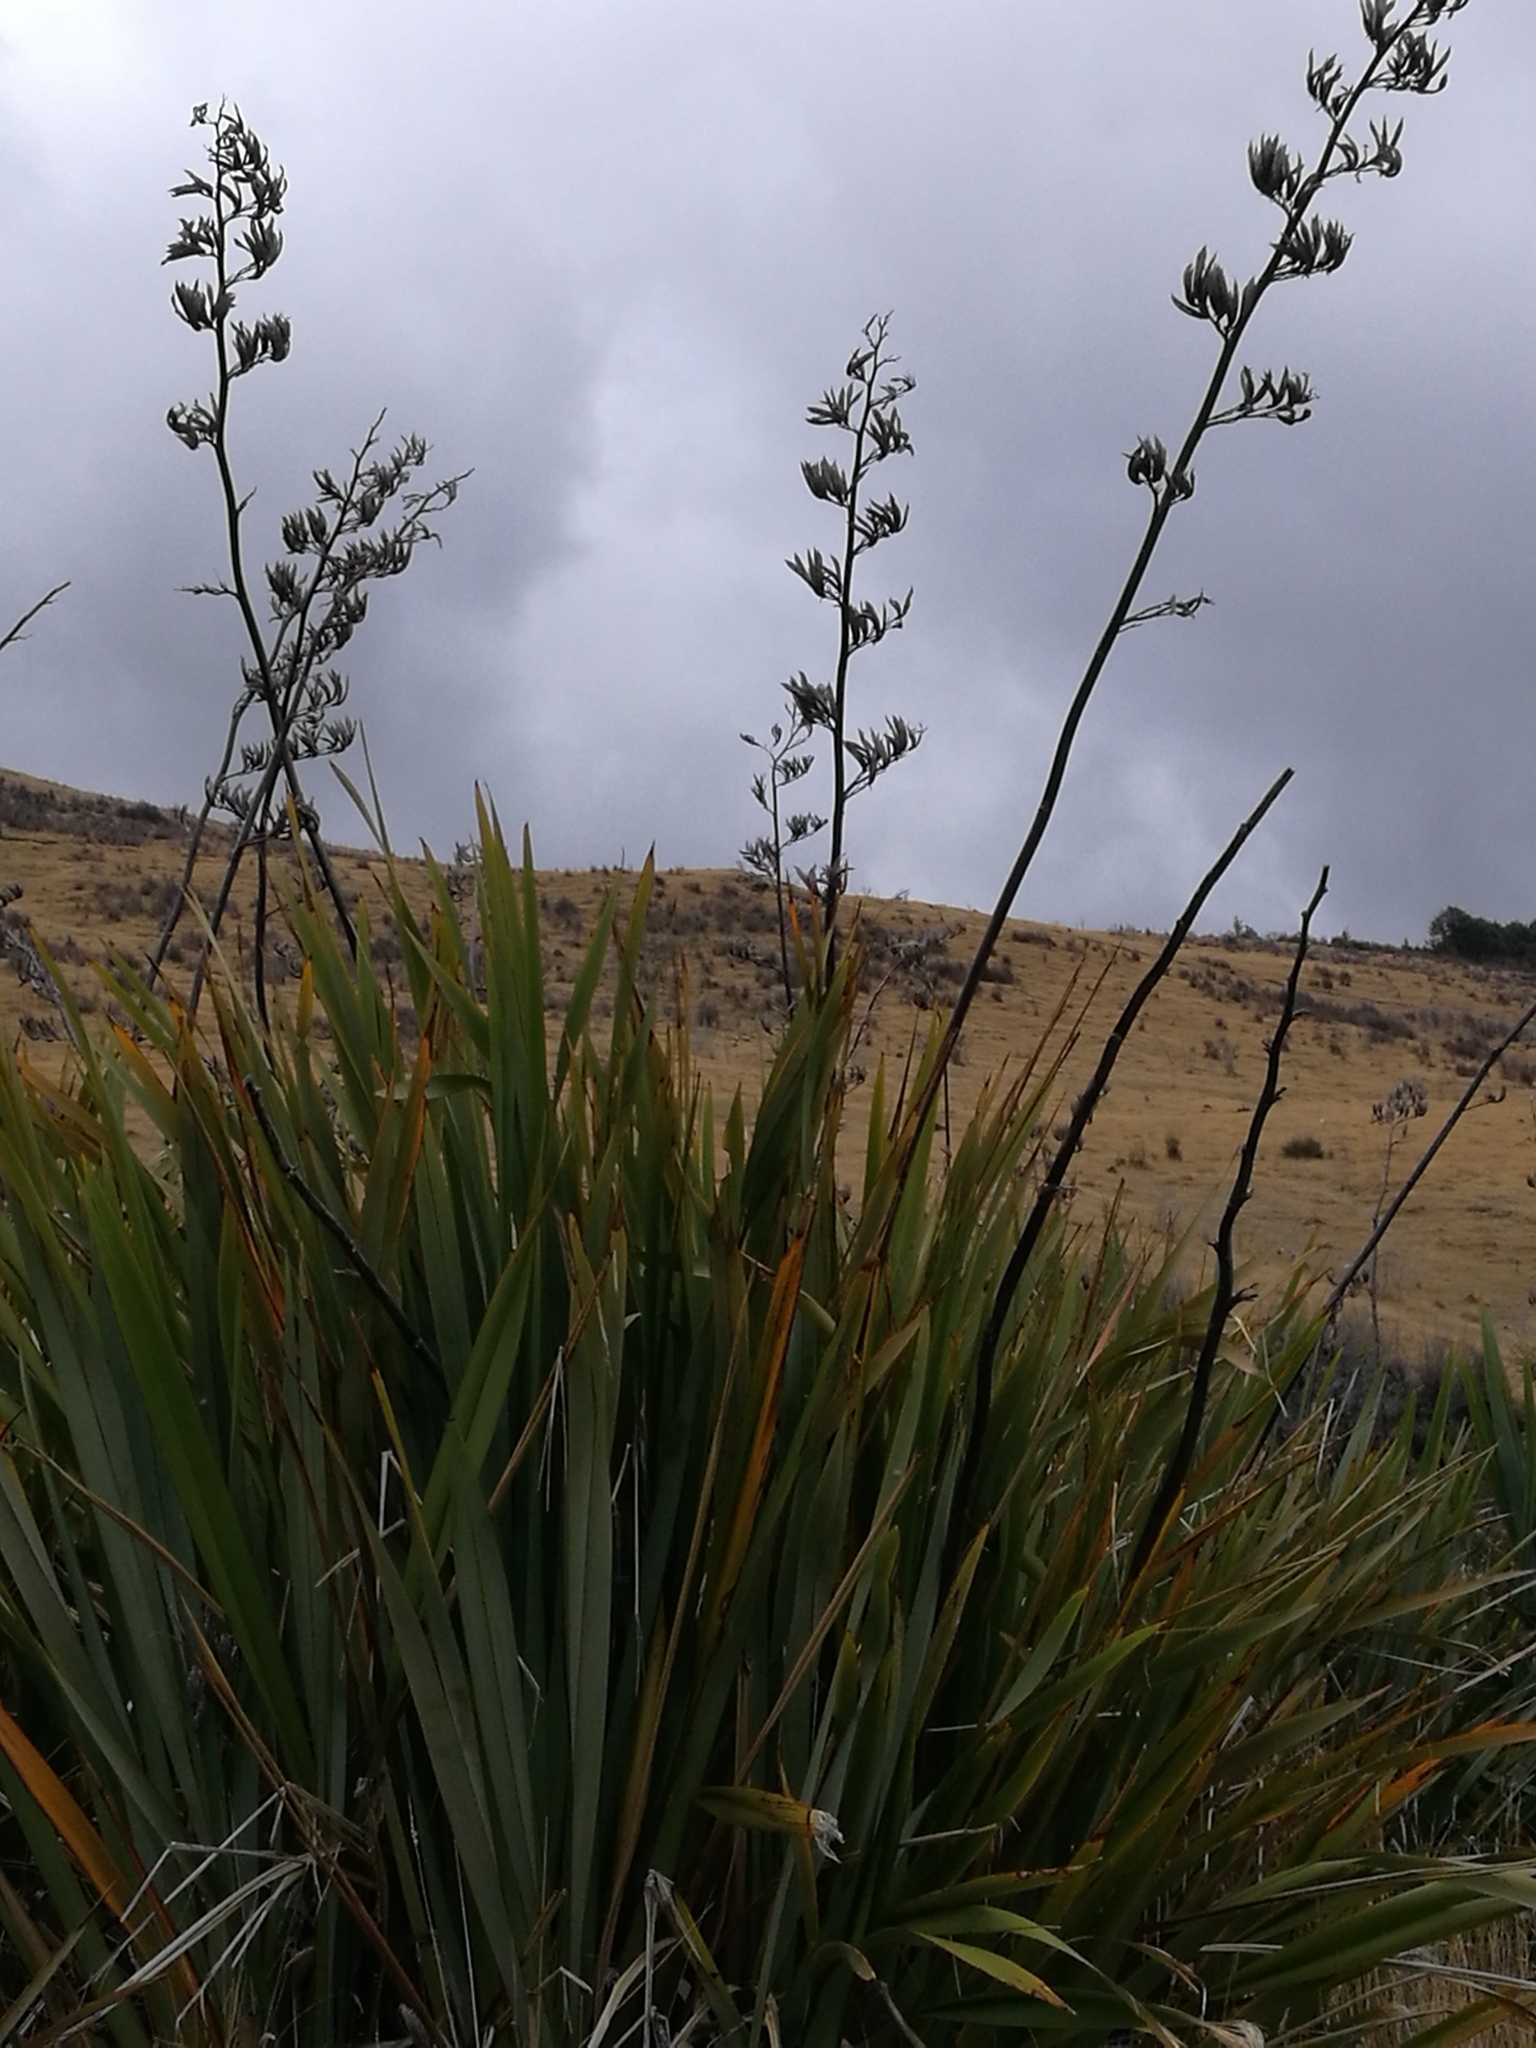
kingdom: Plantae
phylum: Tracheophyta
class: Liliopsida
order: Asparagales
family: Asphodelaceae
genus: Phormium
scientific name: Phormium tenax
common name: New zealand flax
